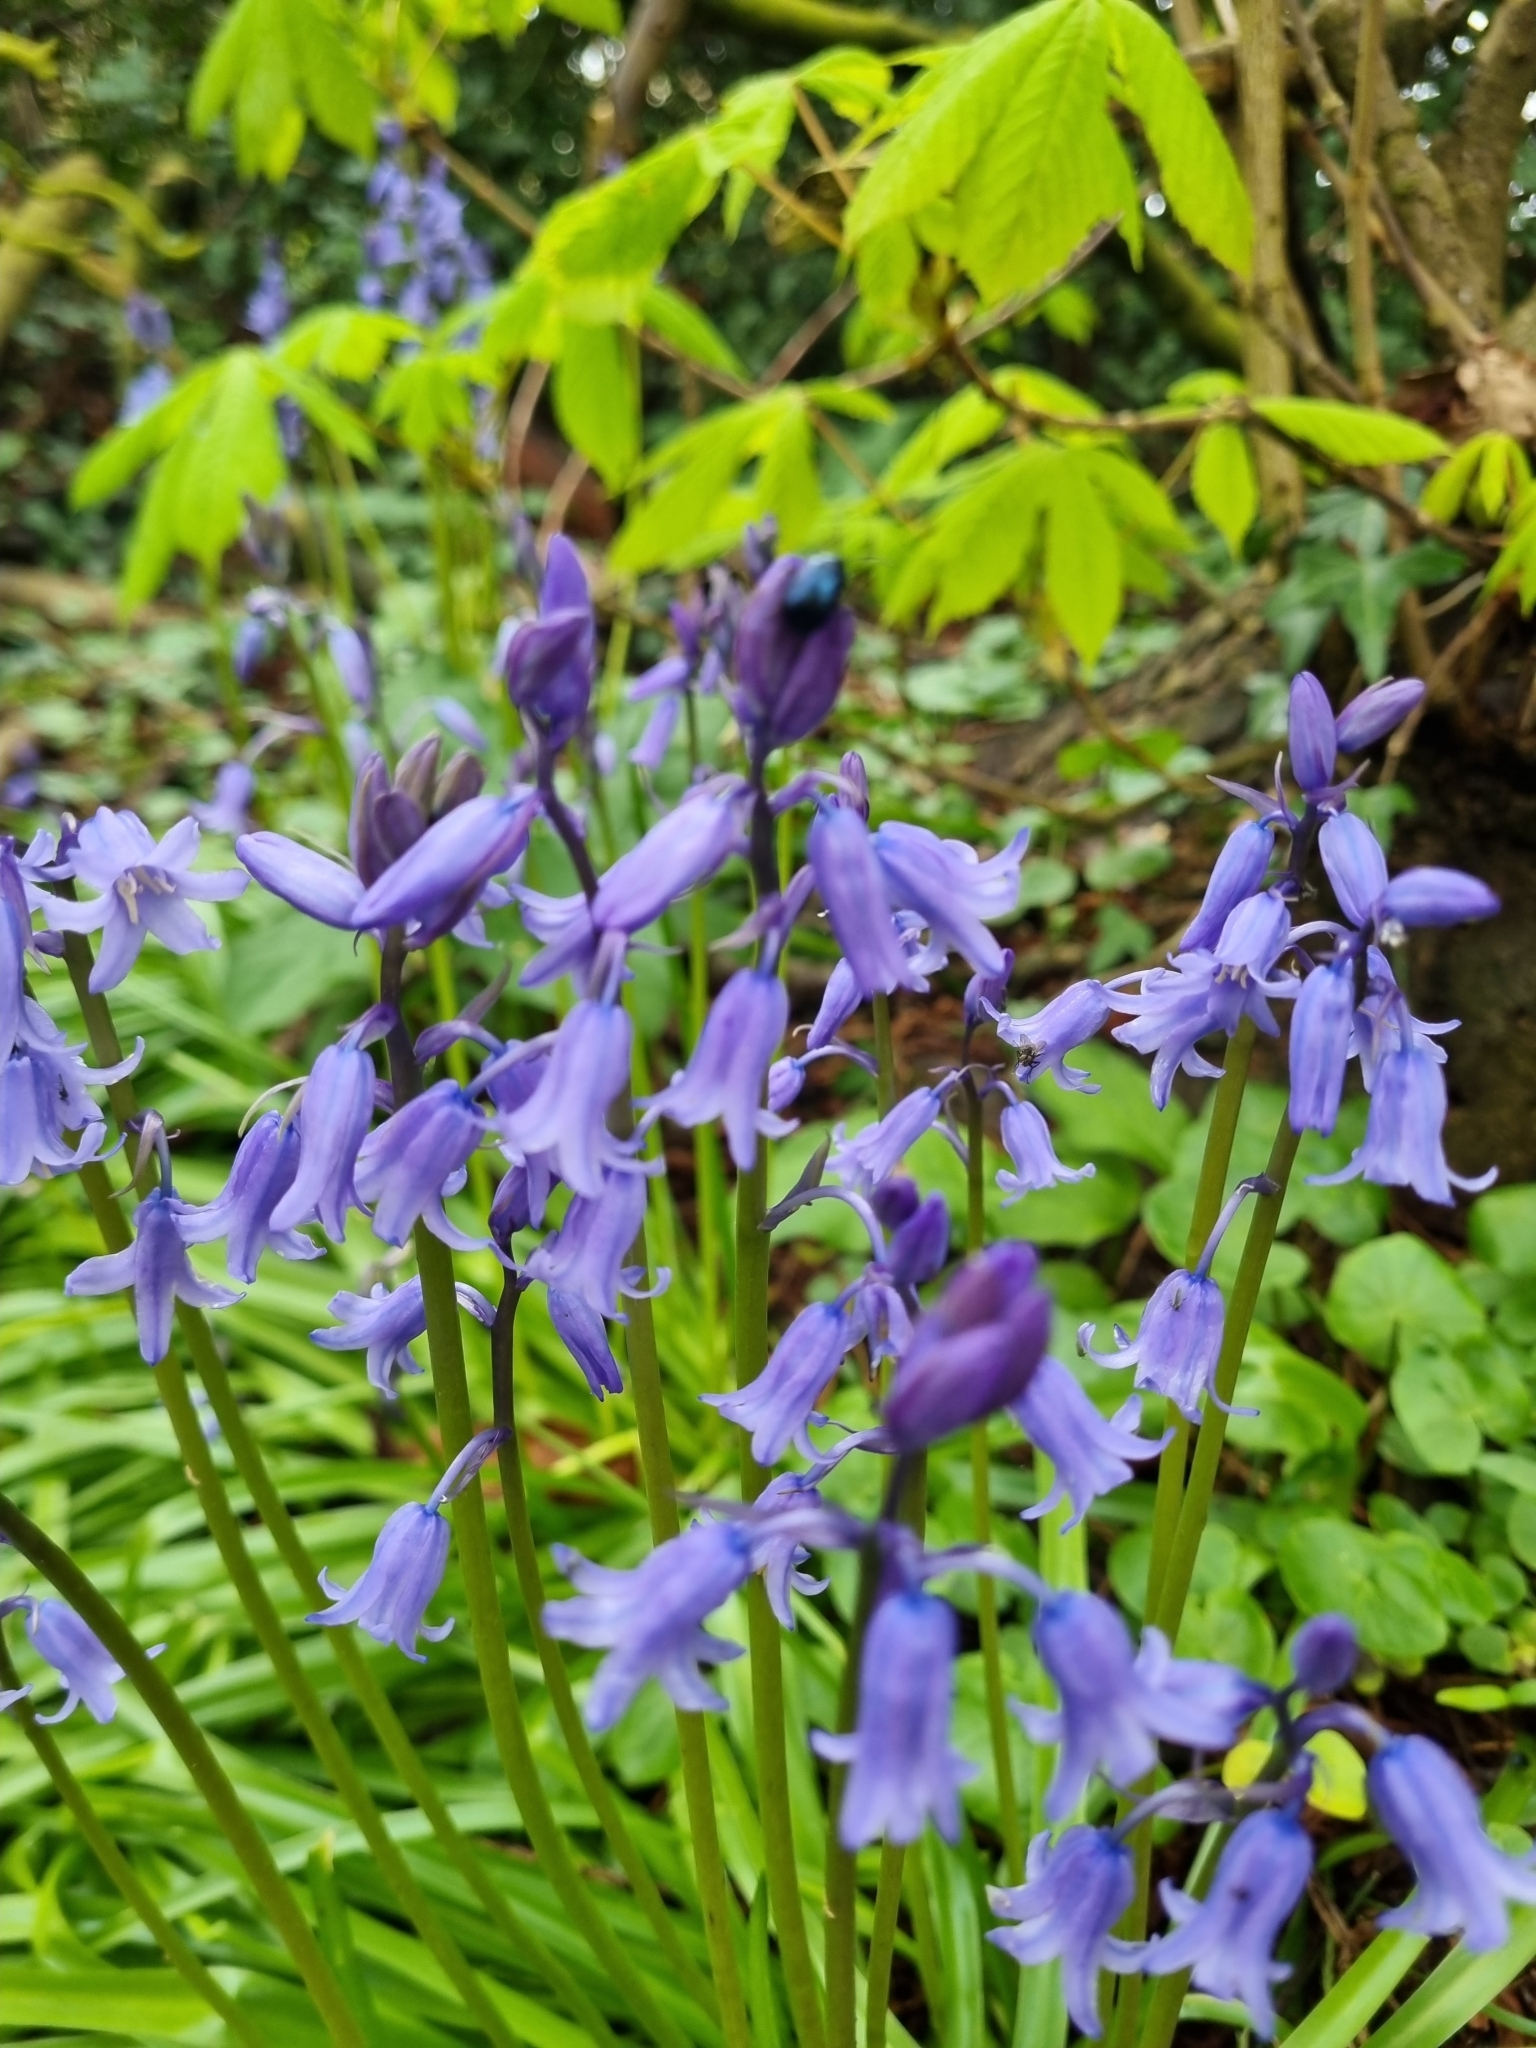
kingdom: Plantae
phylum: Tracheophyta
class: Liliopsida
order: Asparagales
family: Asparagaceae
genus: Hyacinthoides
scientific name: Hyacinthoides massartiana
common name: Hyacinthoides
